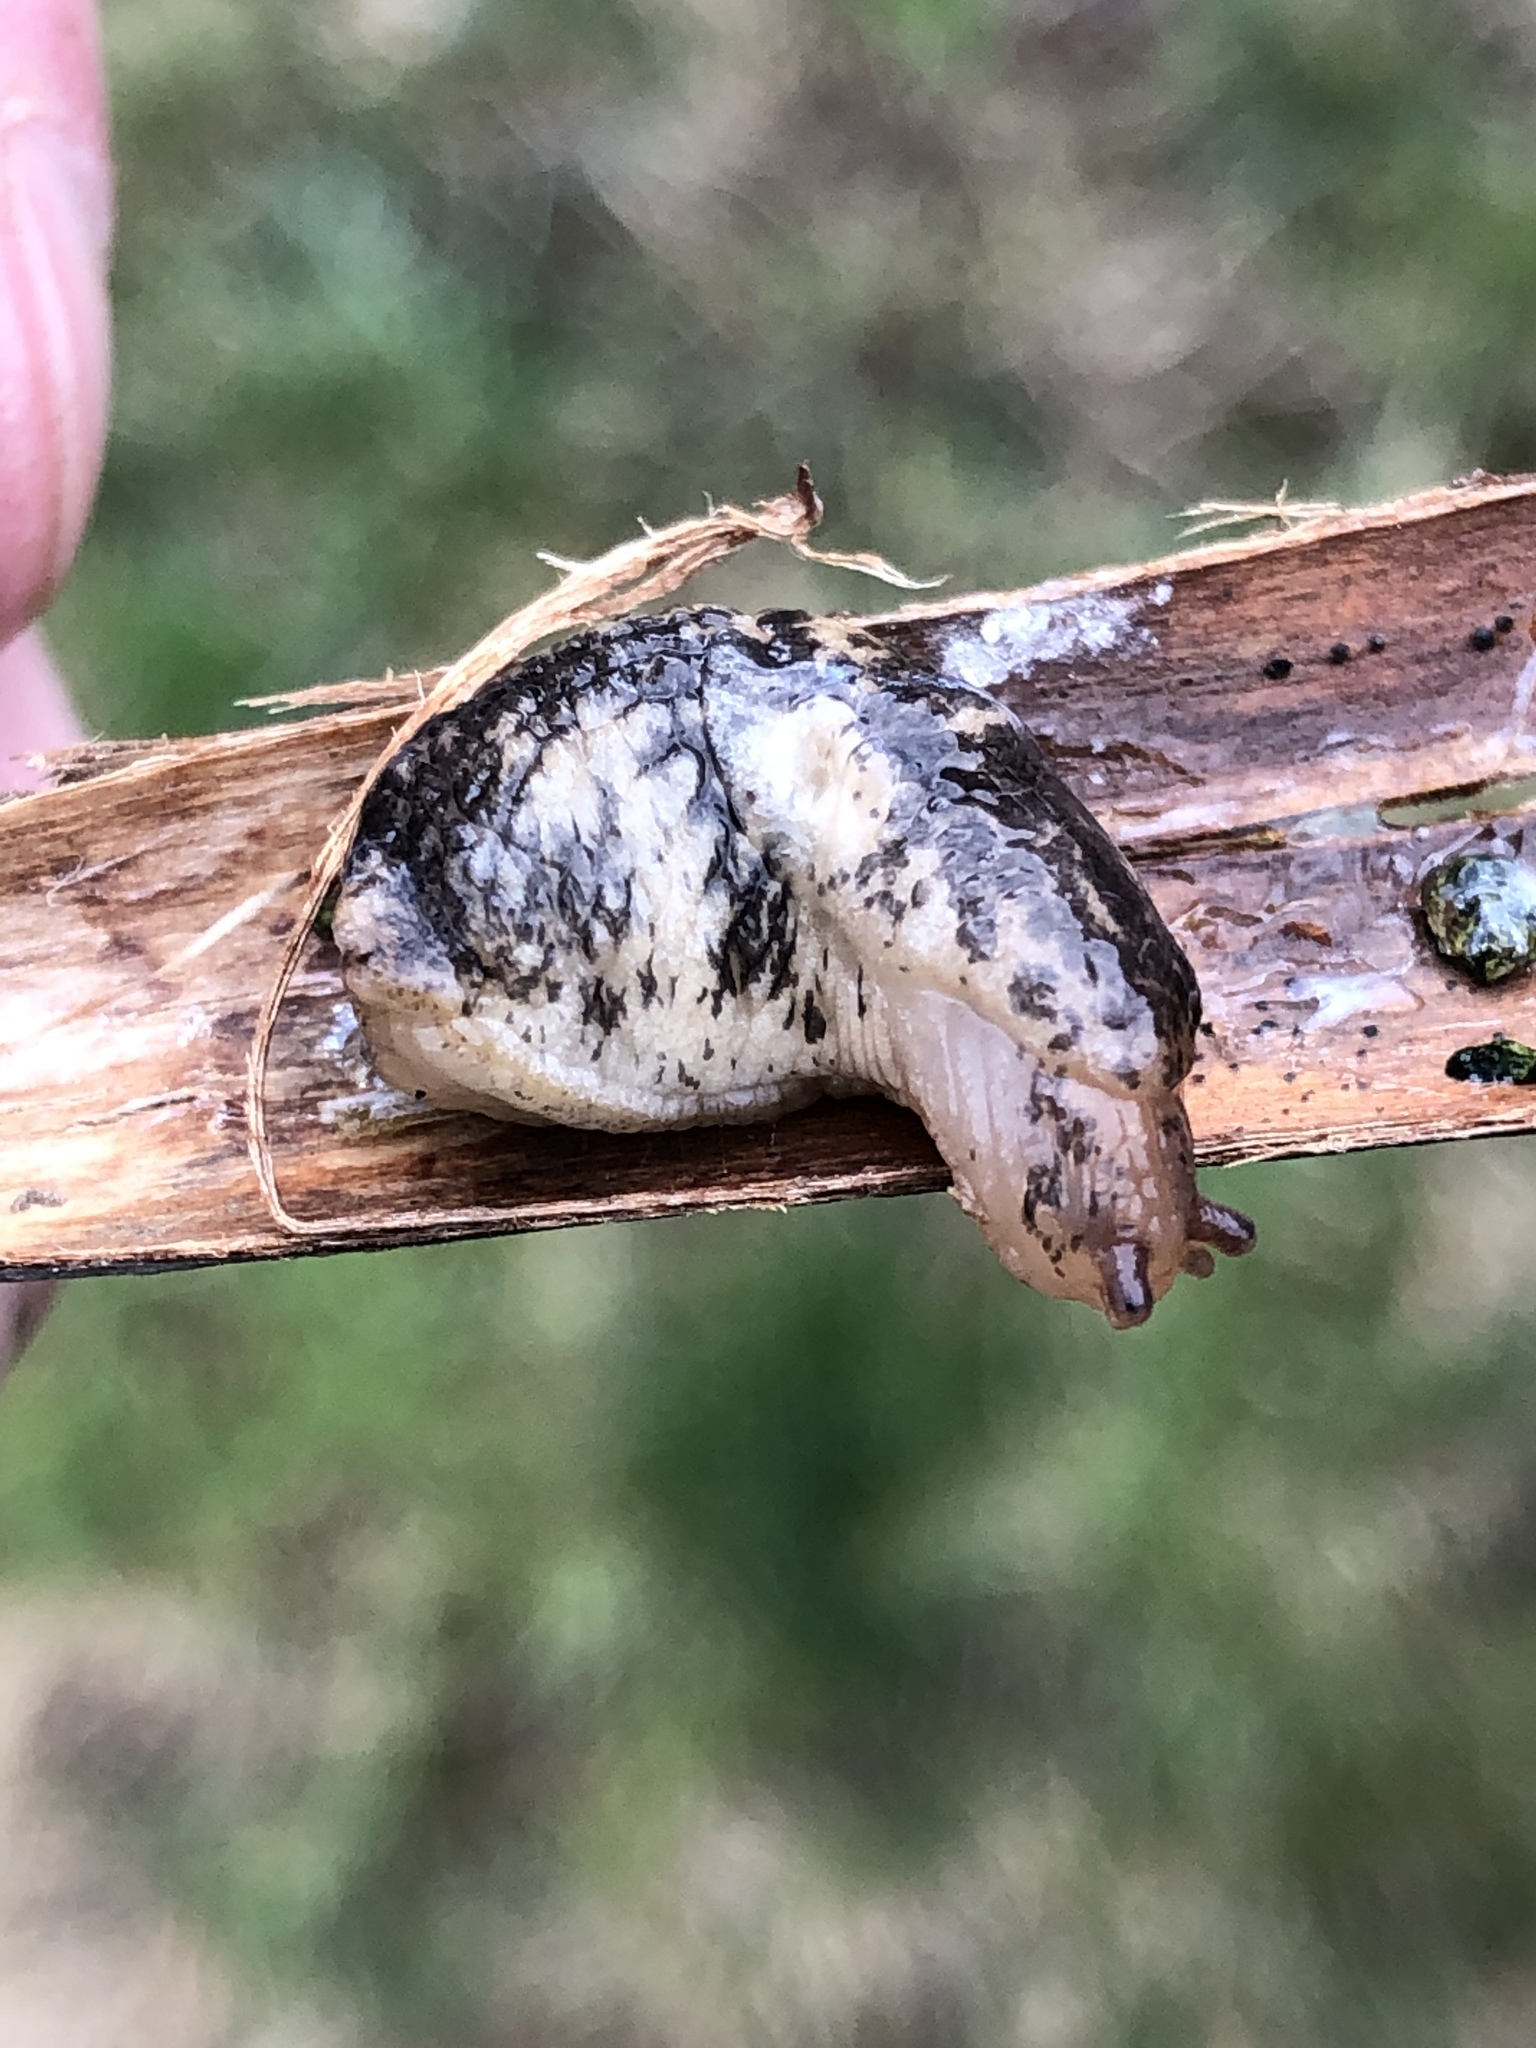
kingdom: Animalia
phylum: Mollusca
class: Gastropoda
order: Stylommatophora
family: Agriolimacidae
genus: Deroceras
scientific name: Deroceras reticulatum
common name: Gray field slug
